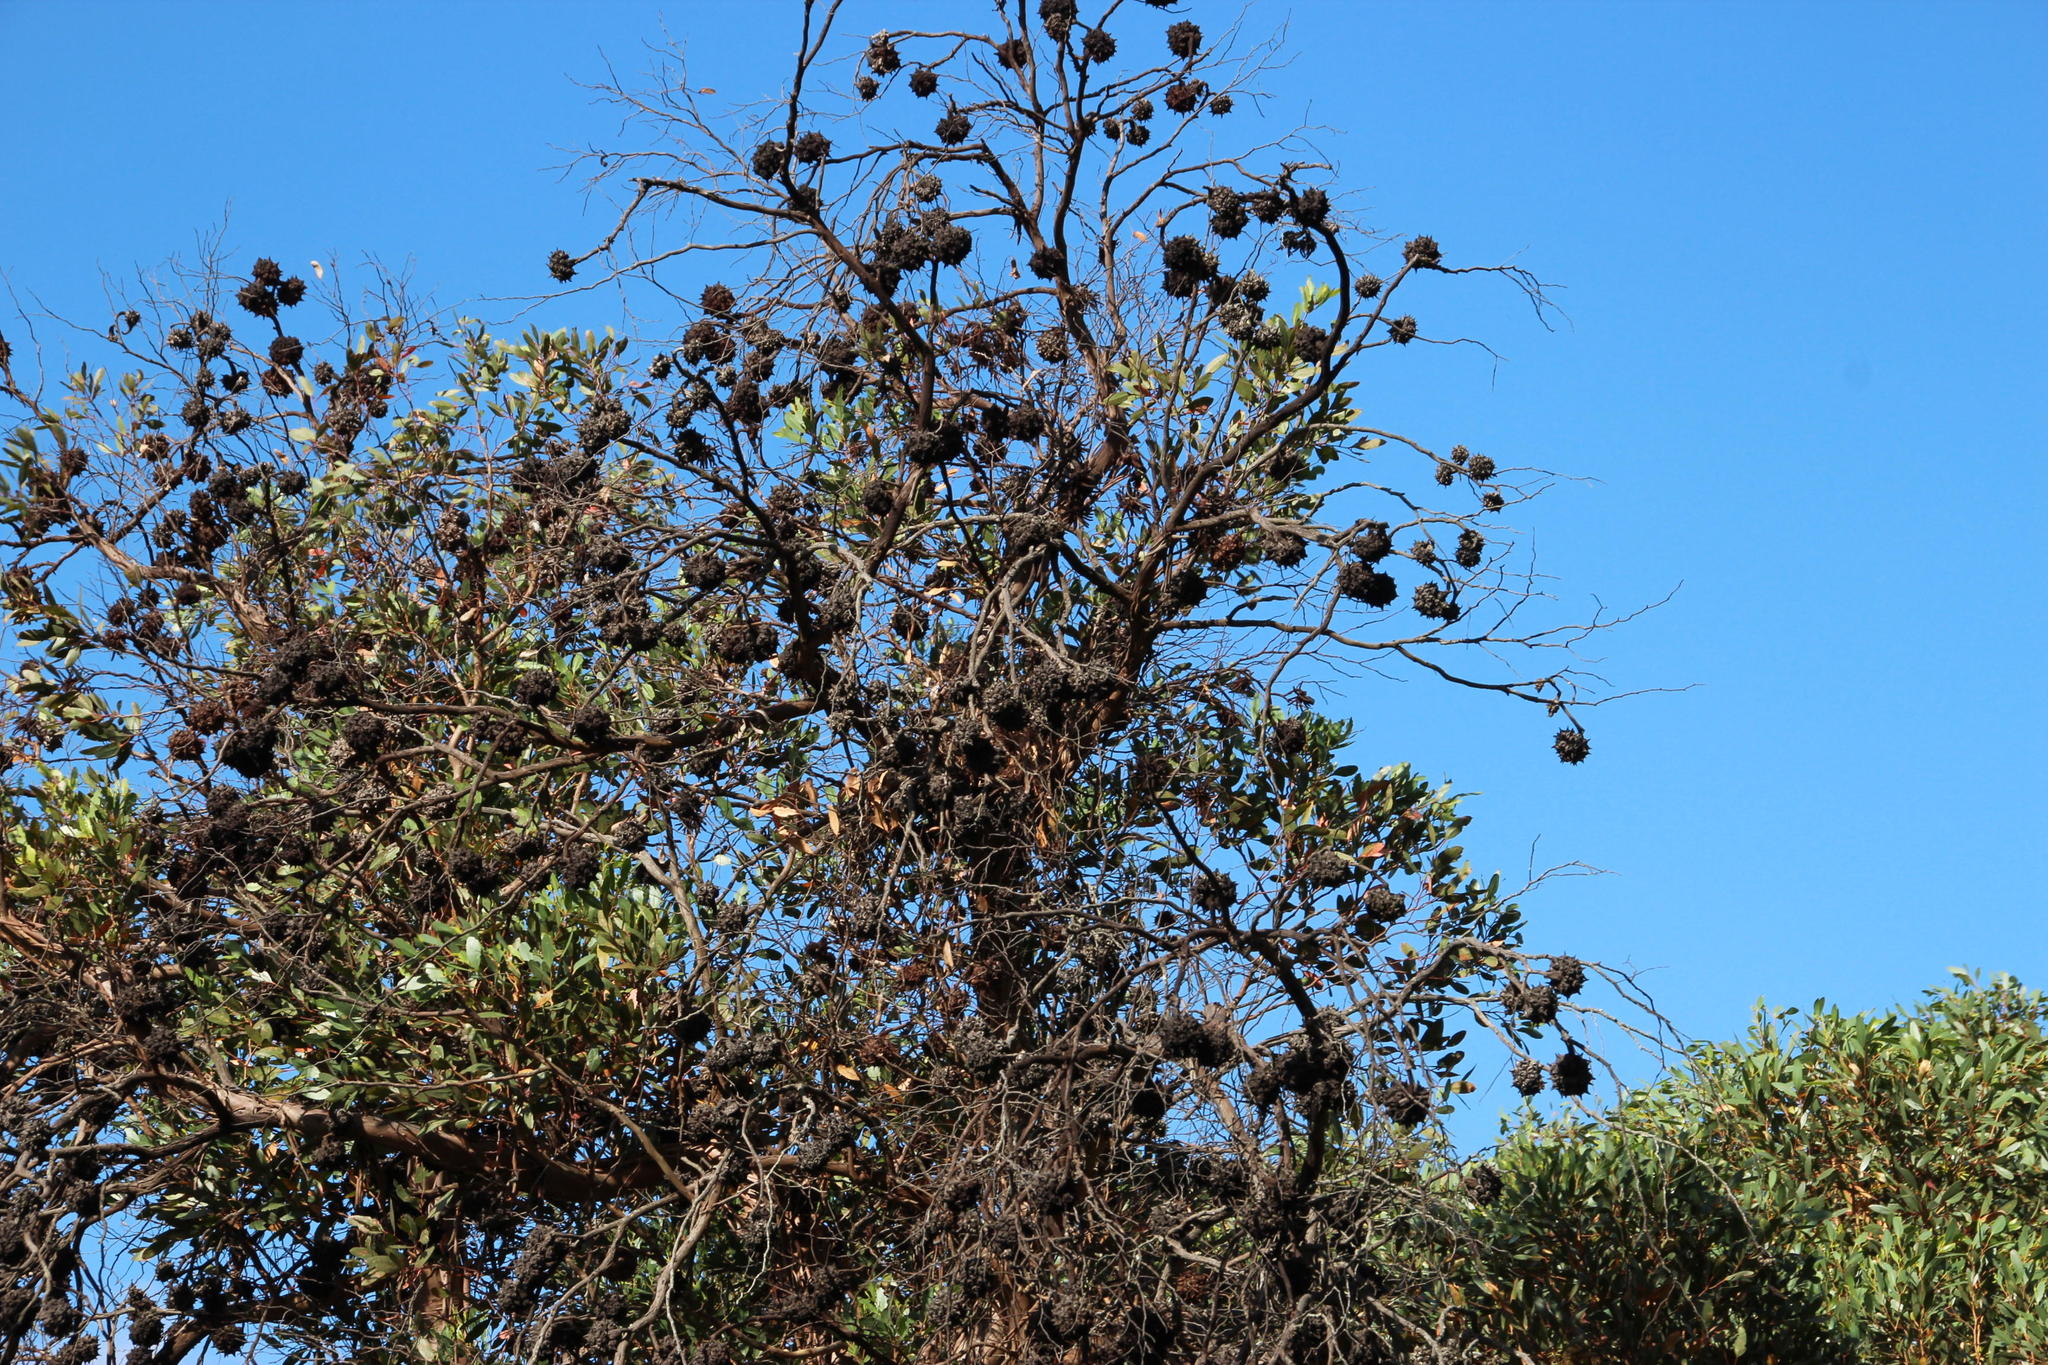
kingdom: Plantae
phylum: Tracheophyta
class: Magnoliopsida
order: Myrtales
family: Myrtaceae
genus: Eucalyptus
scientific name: Eucalyptus conferruminata
